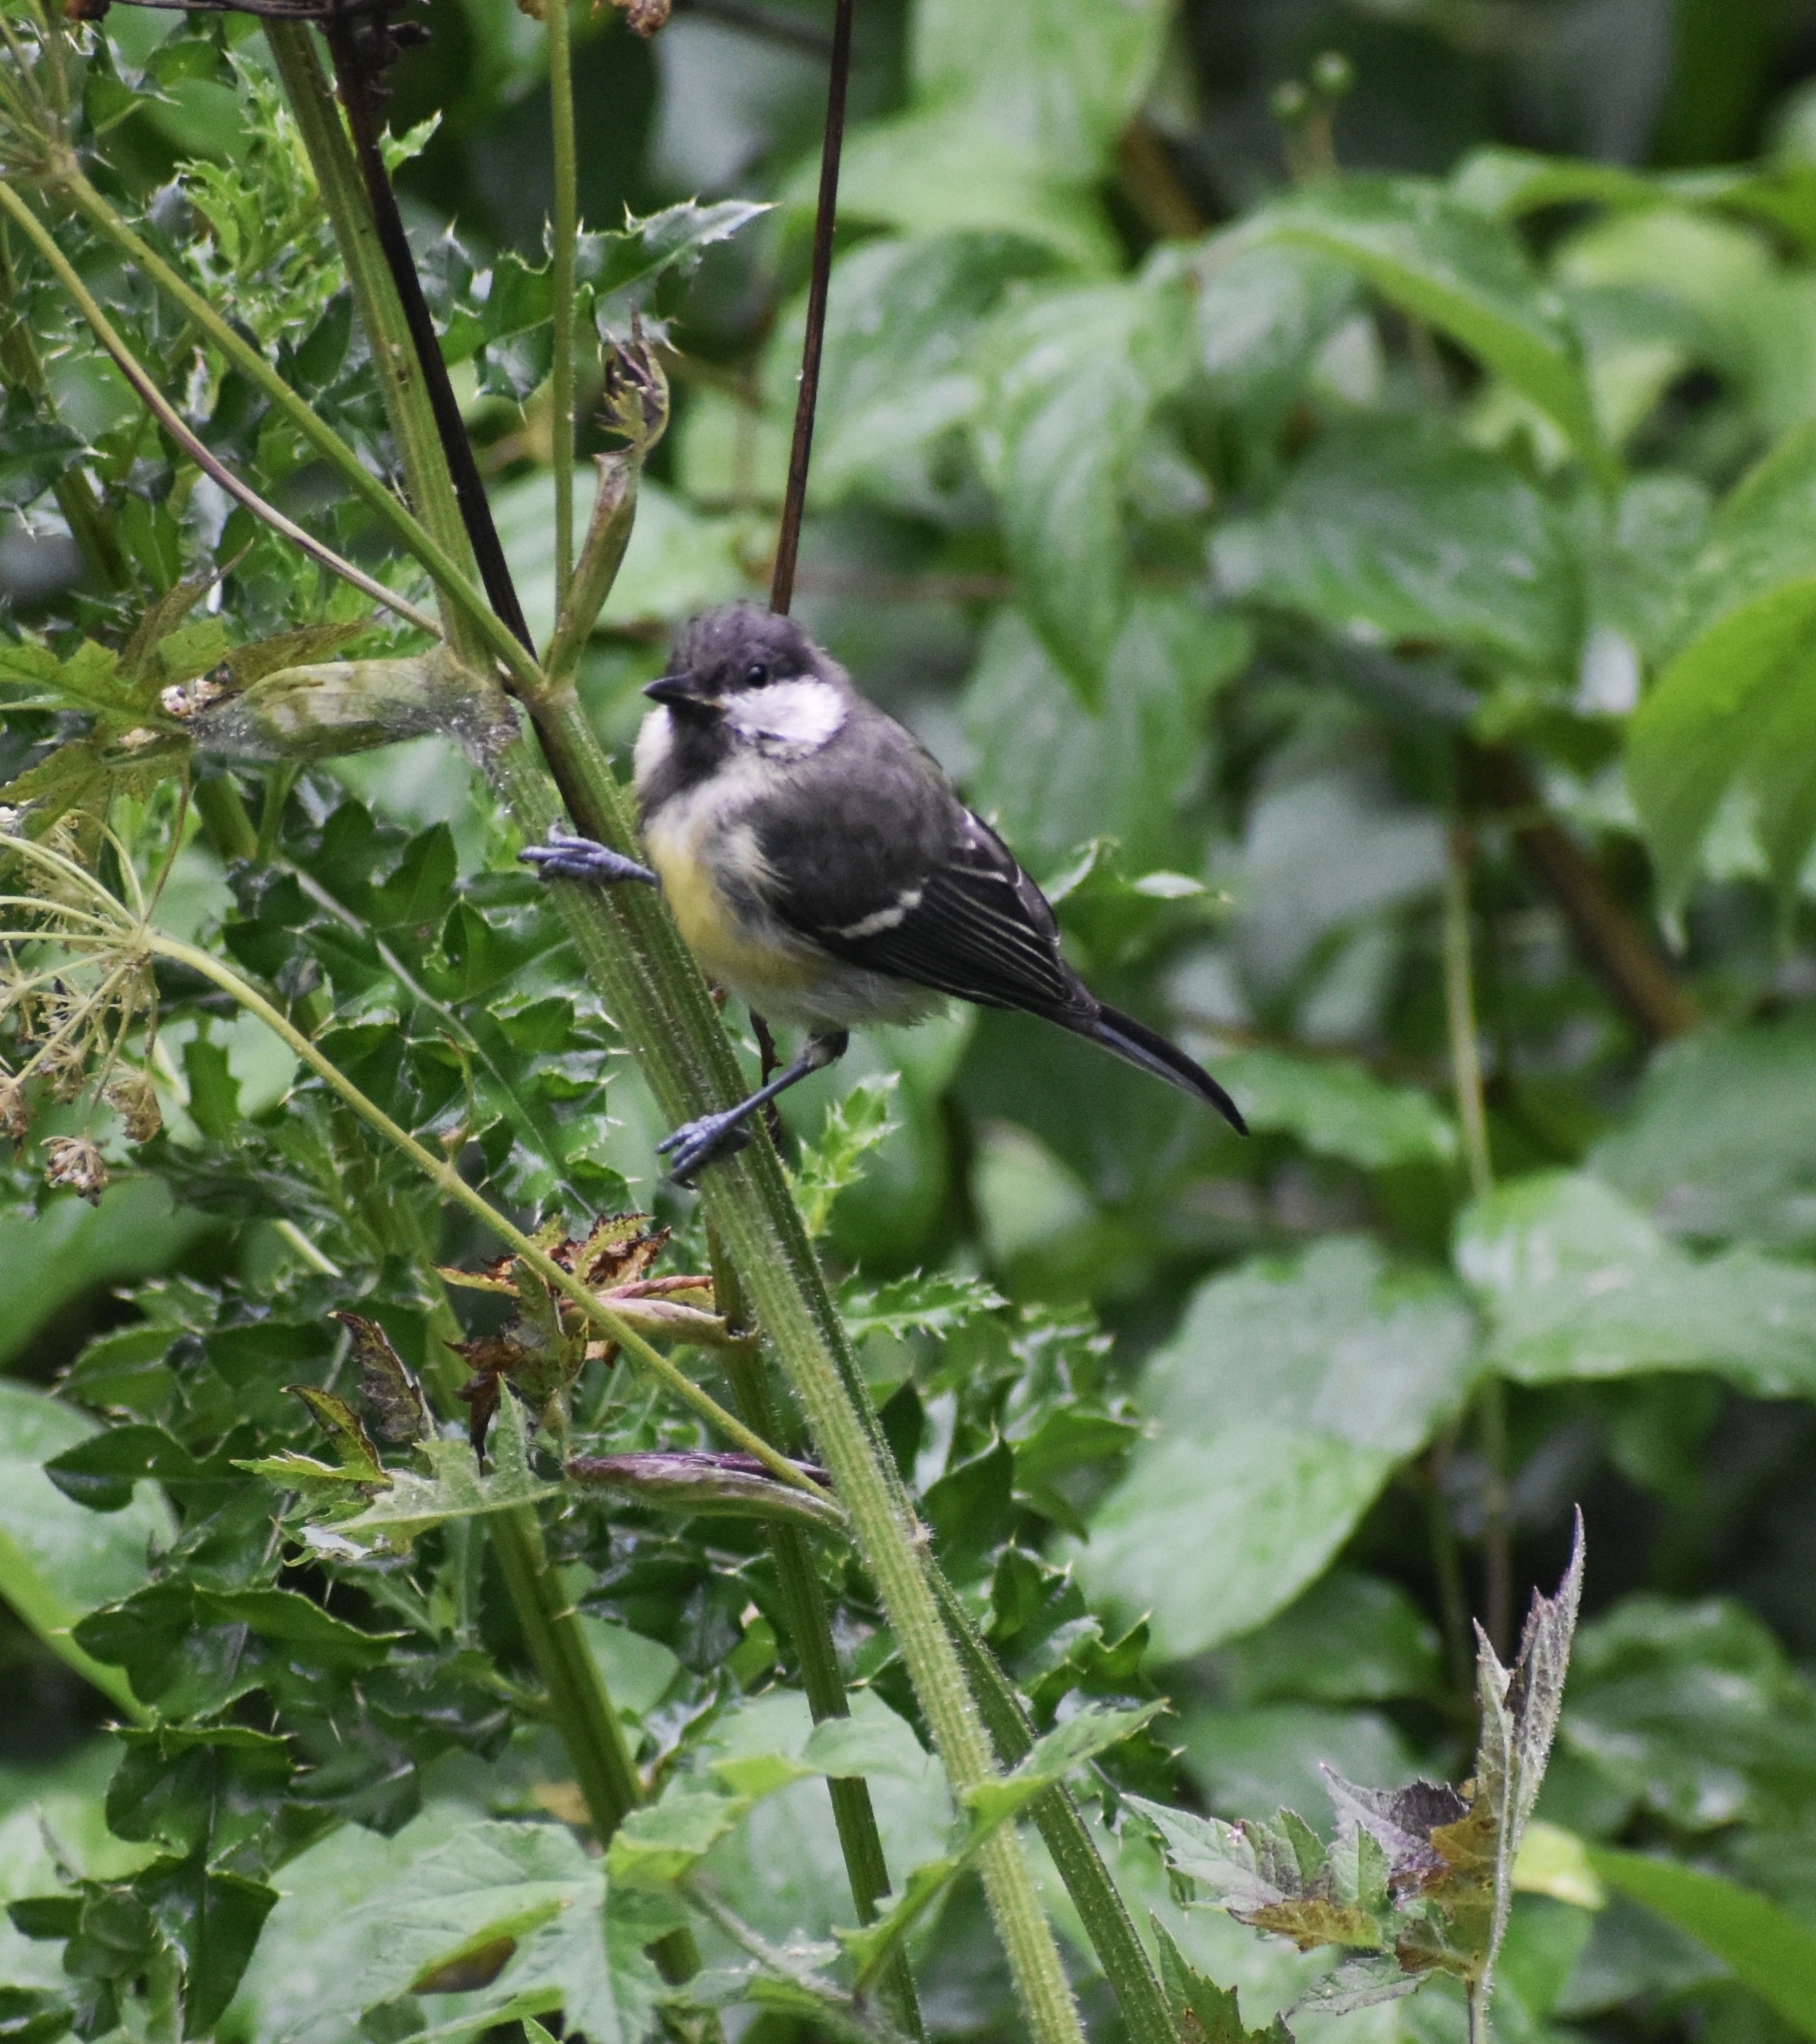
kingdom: Animalia
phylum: Chordata
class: Aves
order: Passeriformes
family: Paridae
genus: Parus
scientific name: Parus major
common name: Great tit
